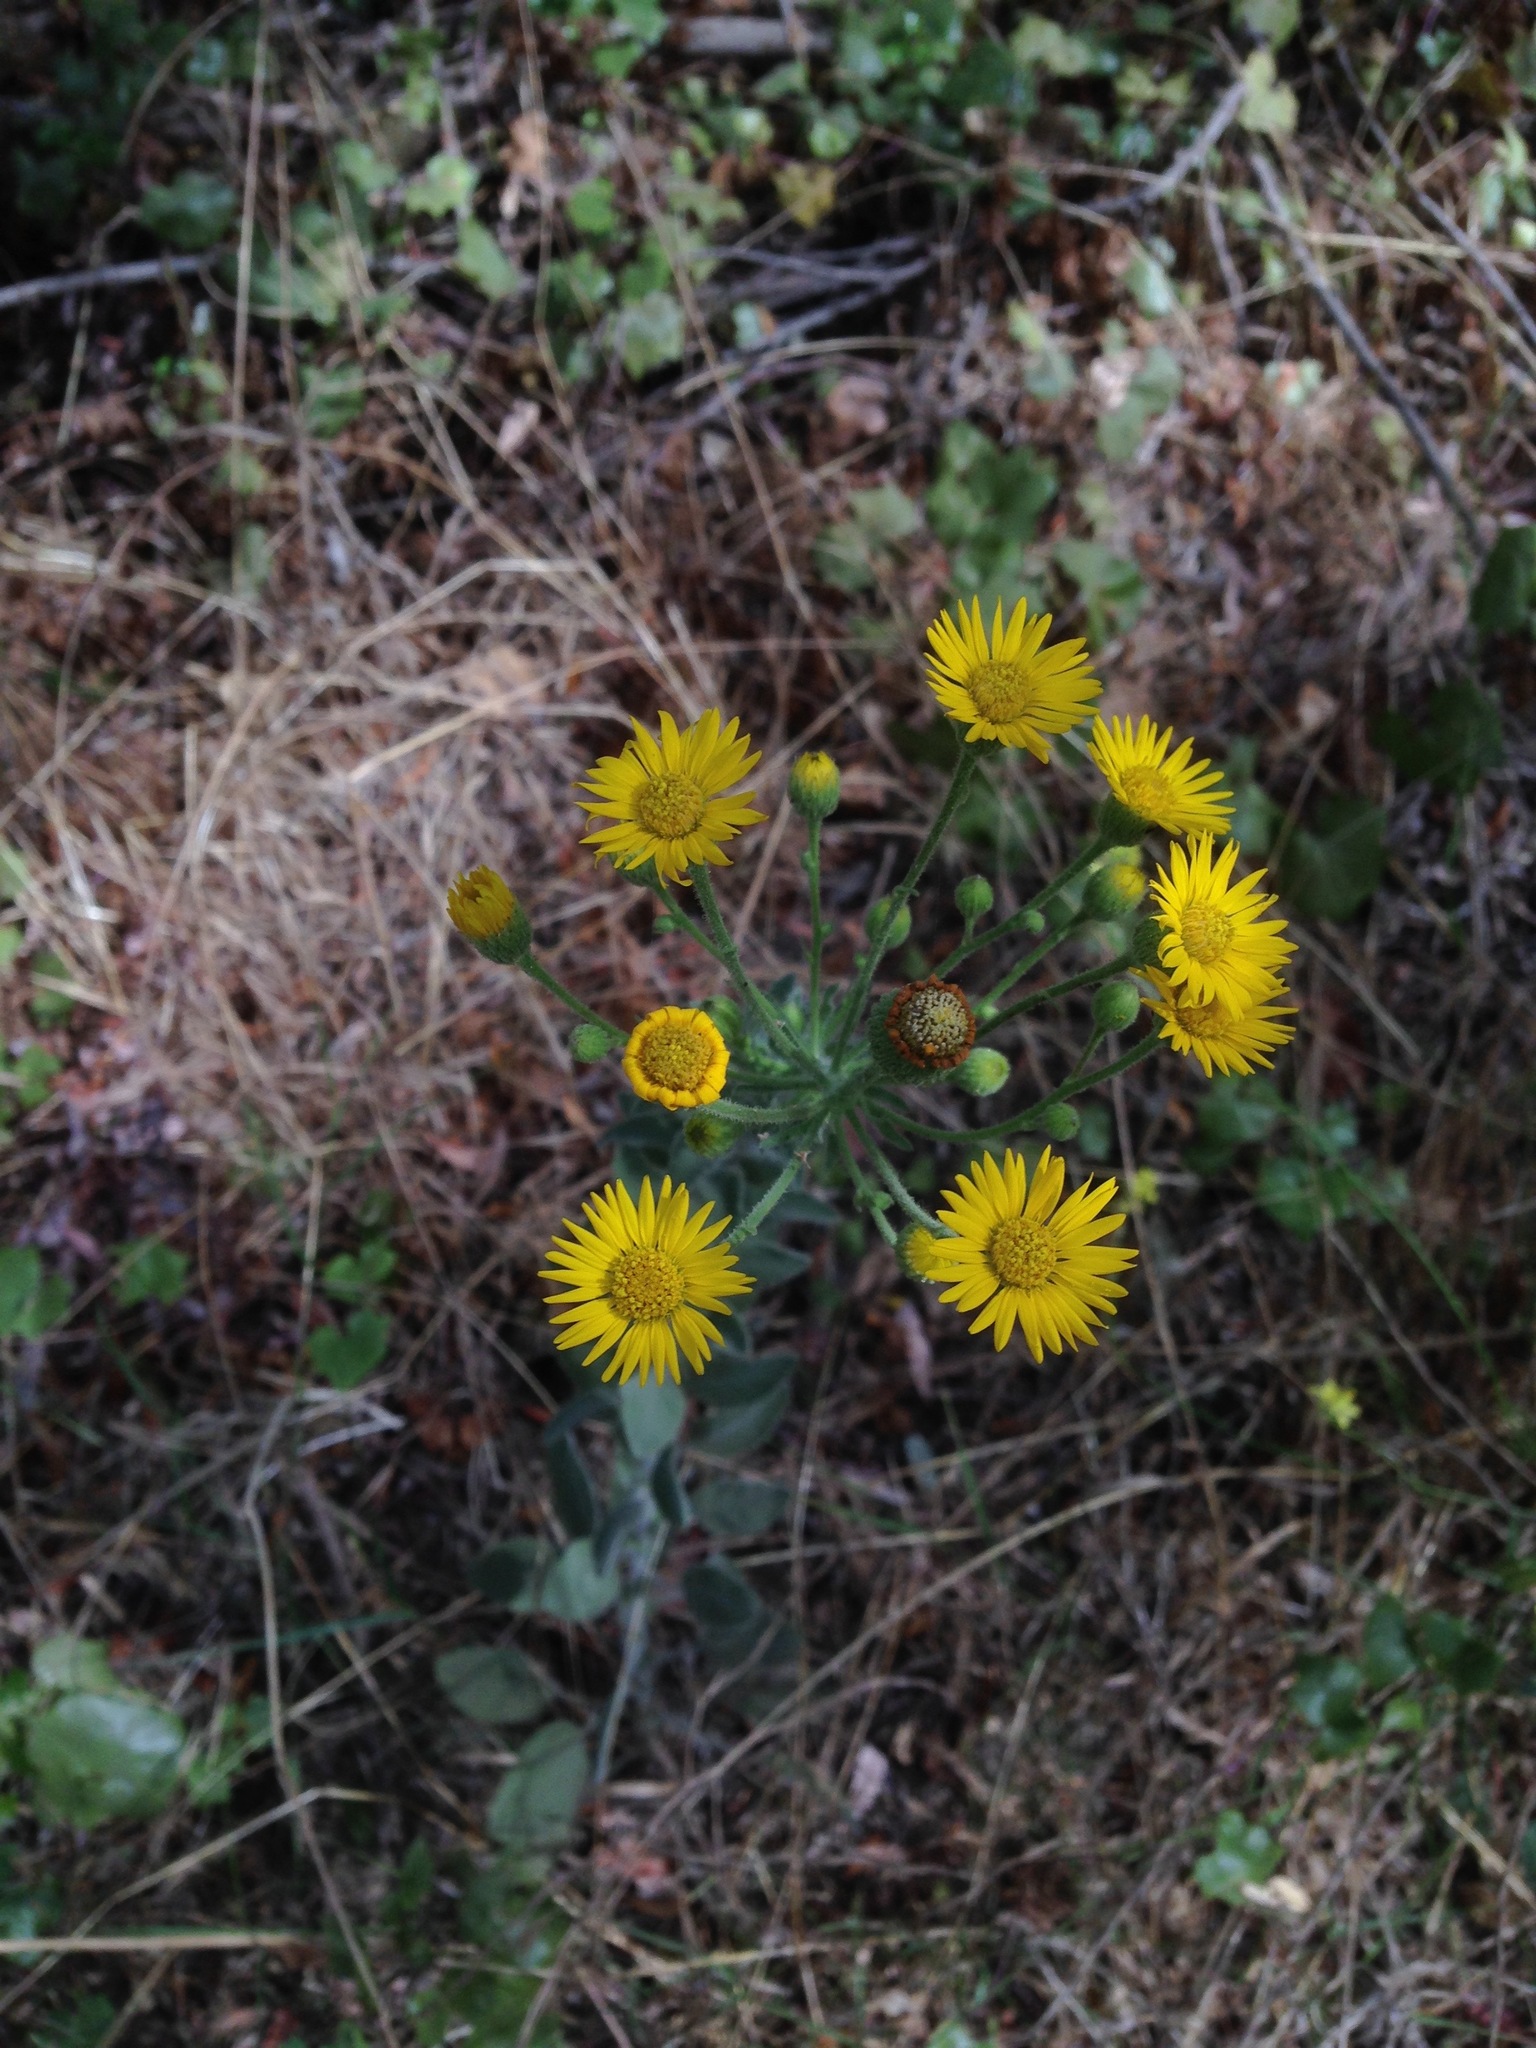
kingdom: Plantae
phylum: Tracheophyta
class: Magnoliopsida
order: Asterales
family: Asteraceae
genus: Heterotheca
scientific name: Heterotheca grandiflora
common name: Telegraphweed
